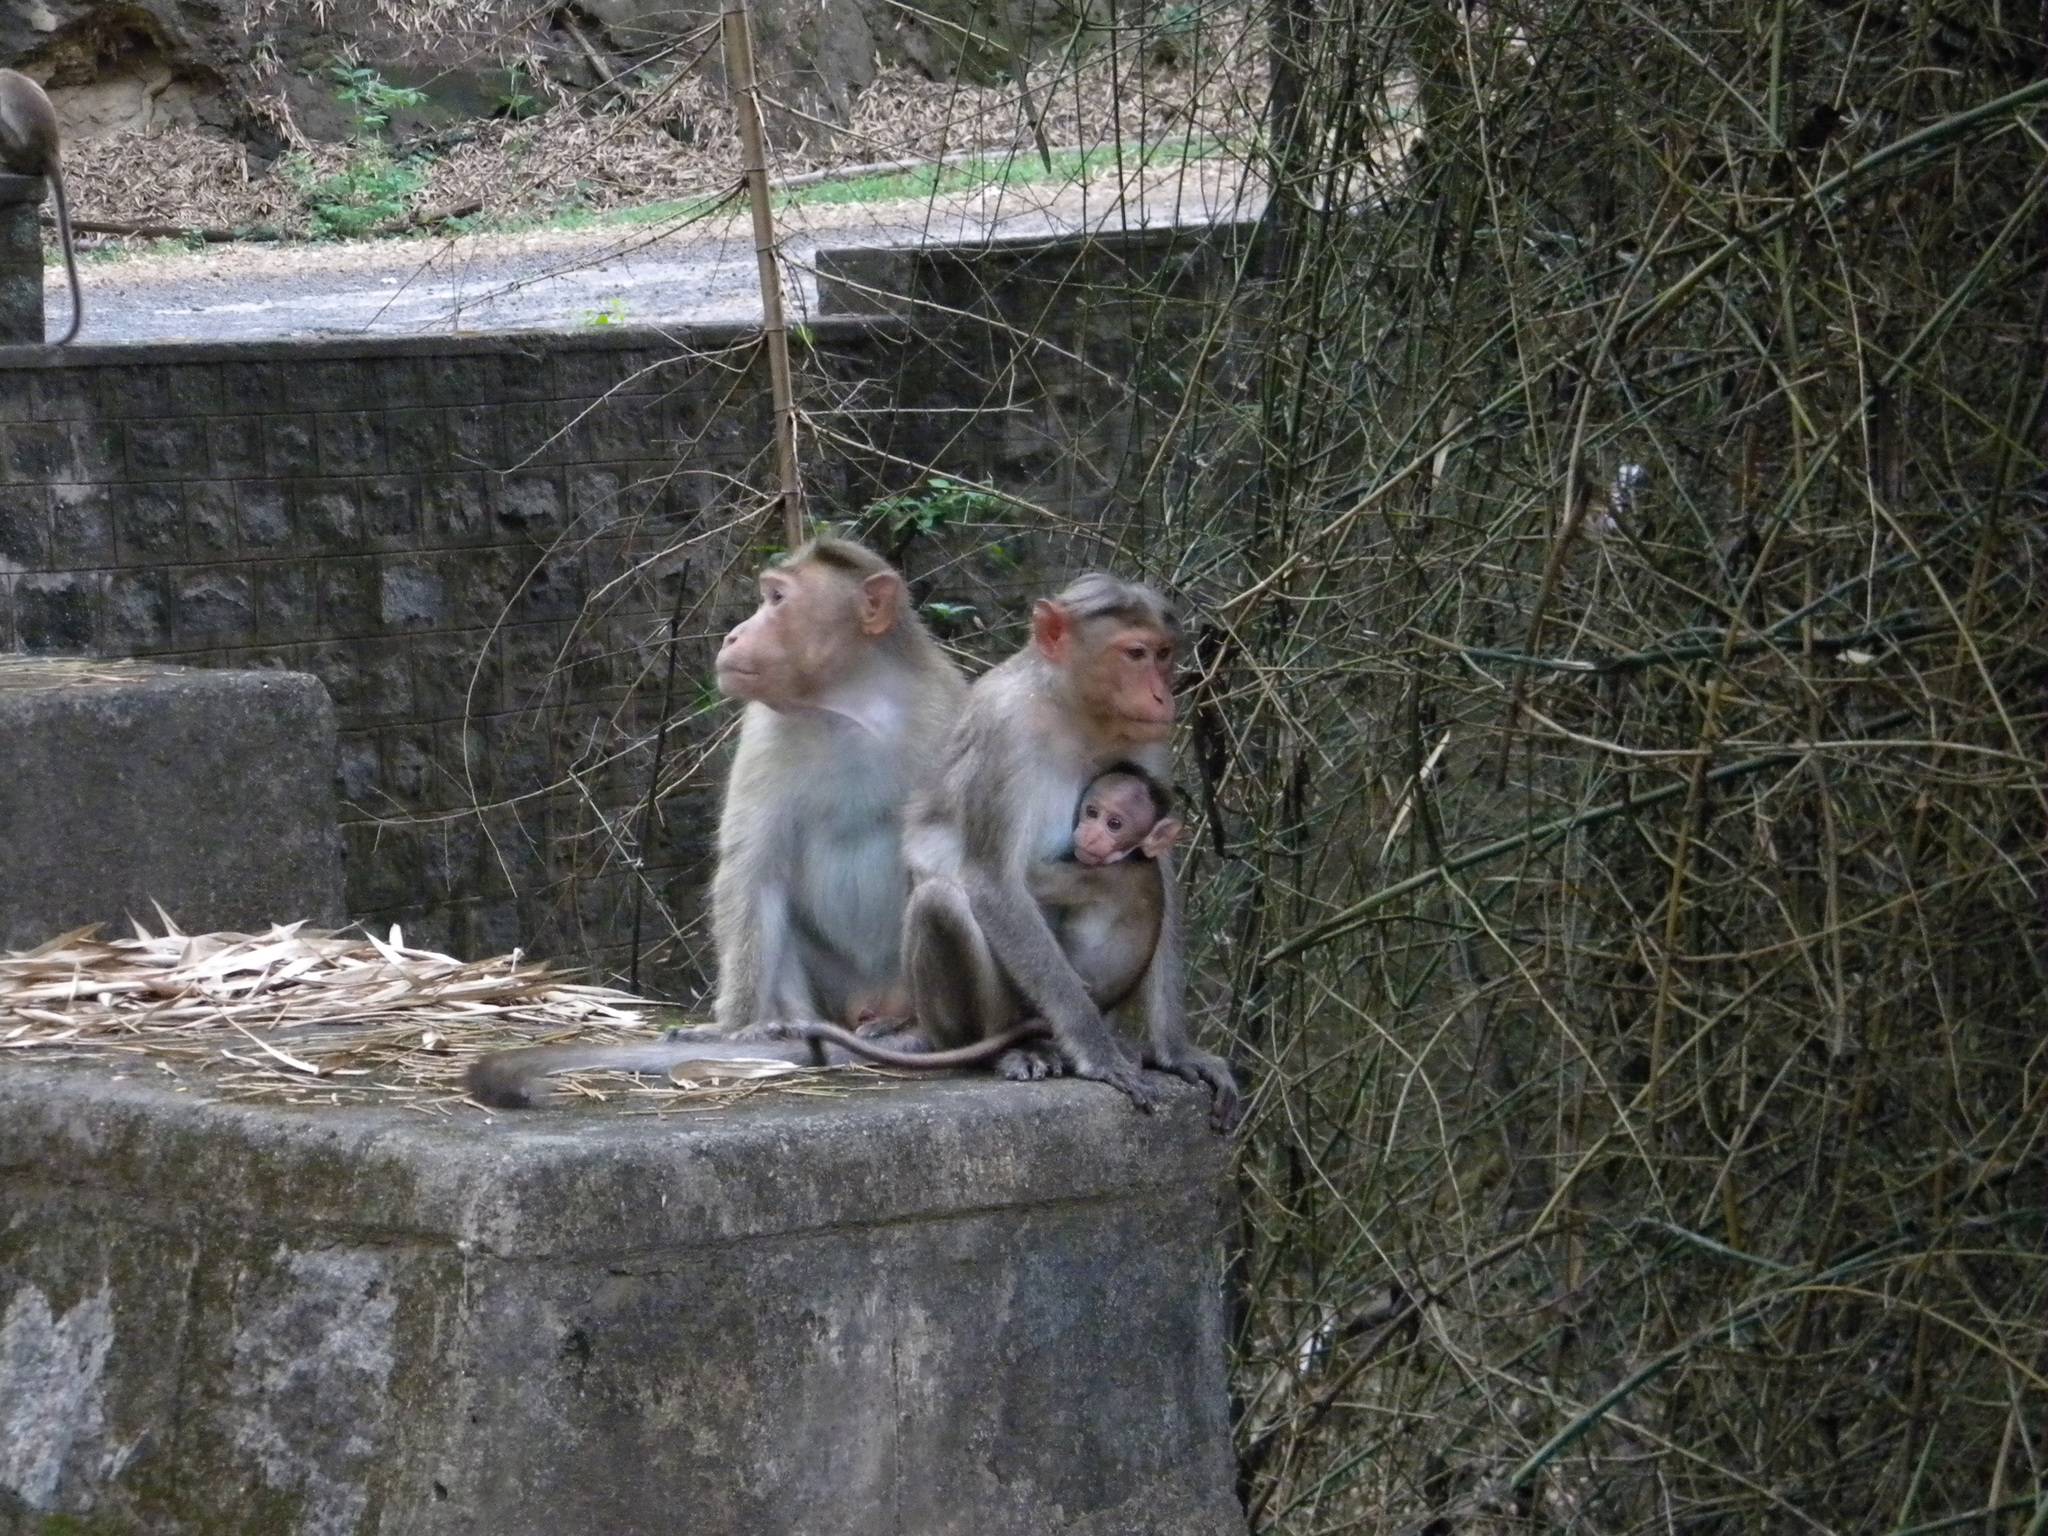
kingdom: Animalia
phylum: Chordata
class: Mammalia
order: Primates
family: Cercopithecidae
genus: Macaca
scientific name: Macaca radiata
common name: Bonnet macaque
